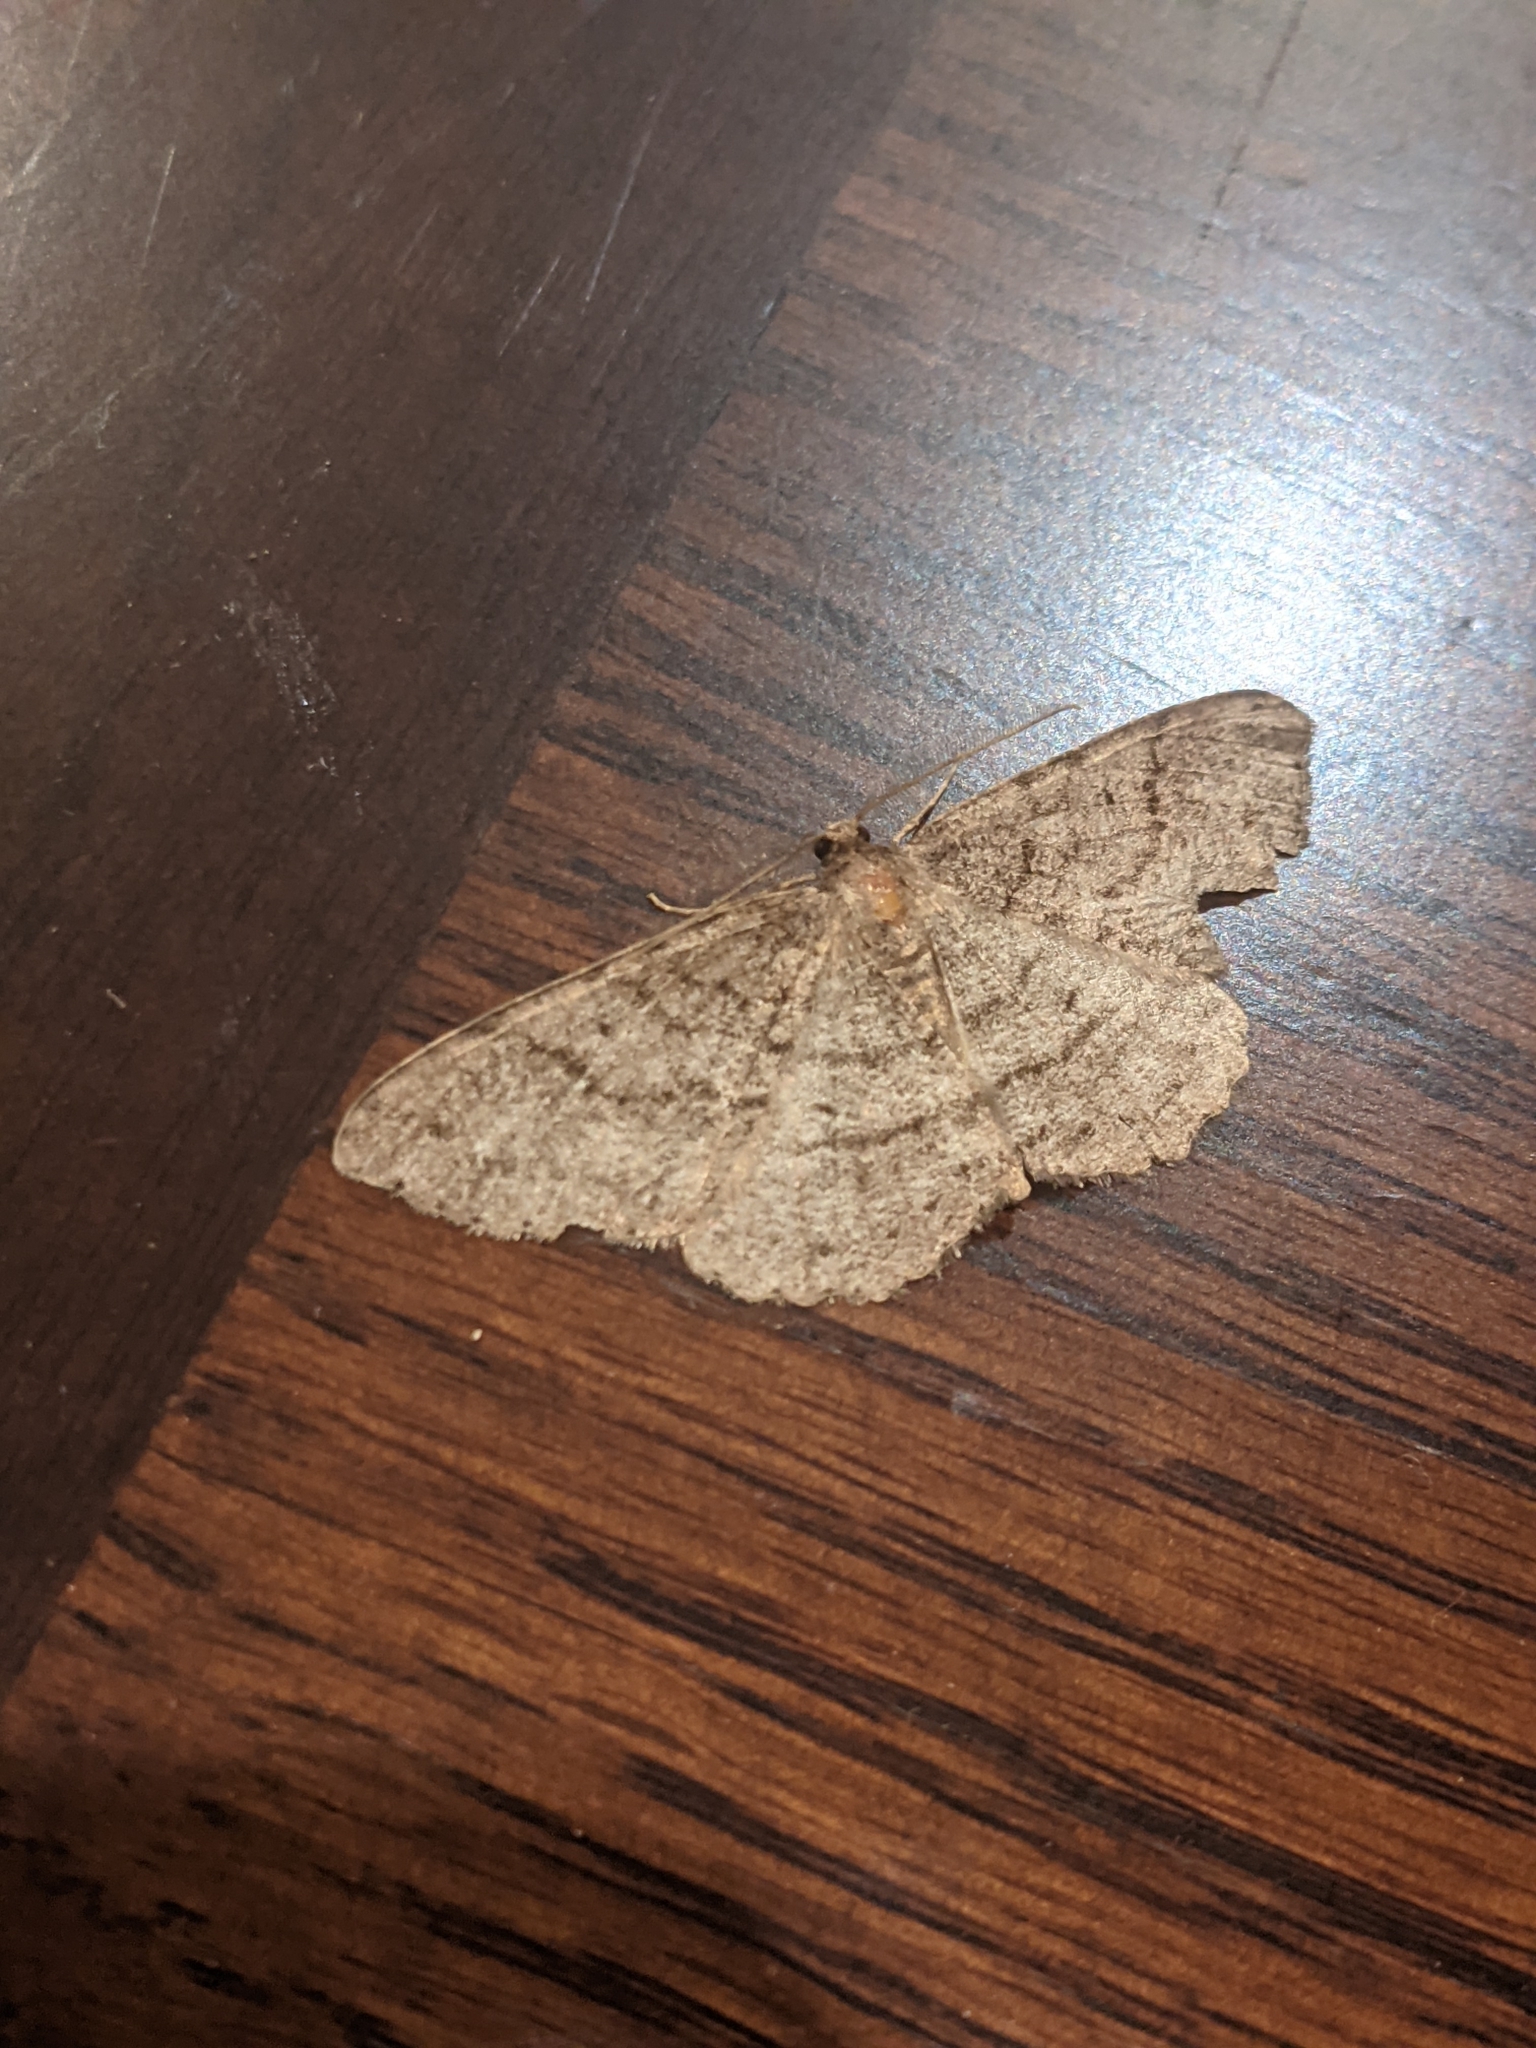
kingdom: Animalia
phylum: Arthropoda
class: Insecta
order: Lepidoptera
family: Geometridae
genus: Melanolophia
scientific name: Melanolophia imitata
